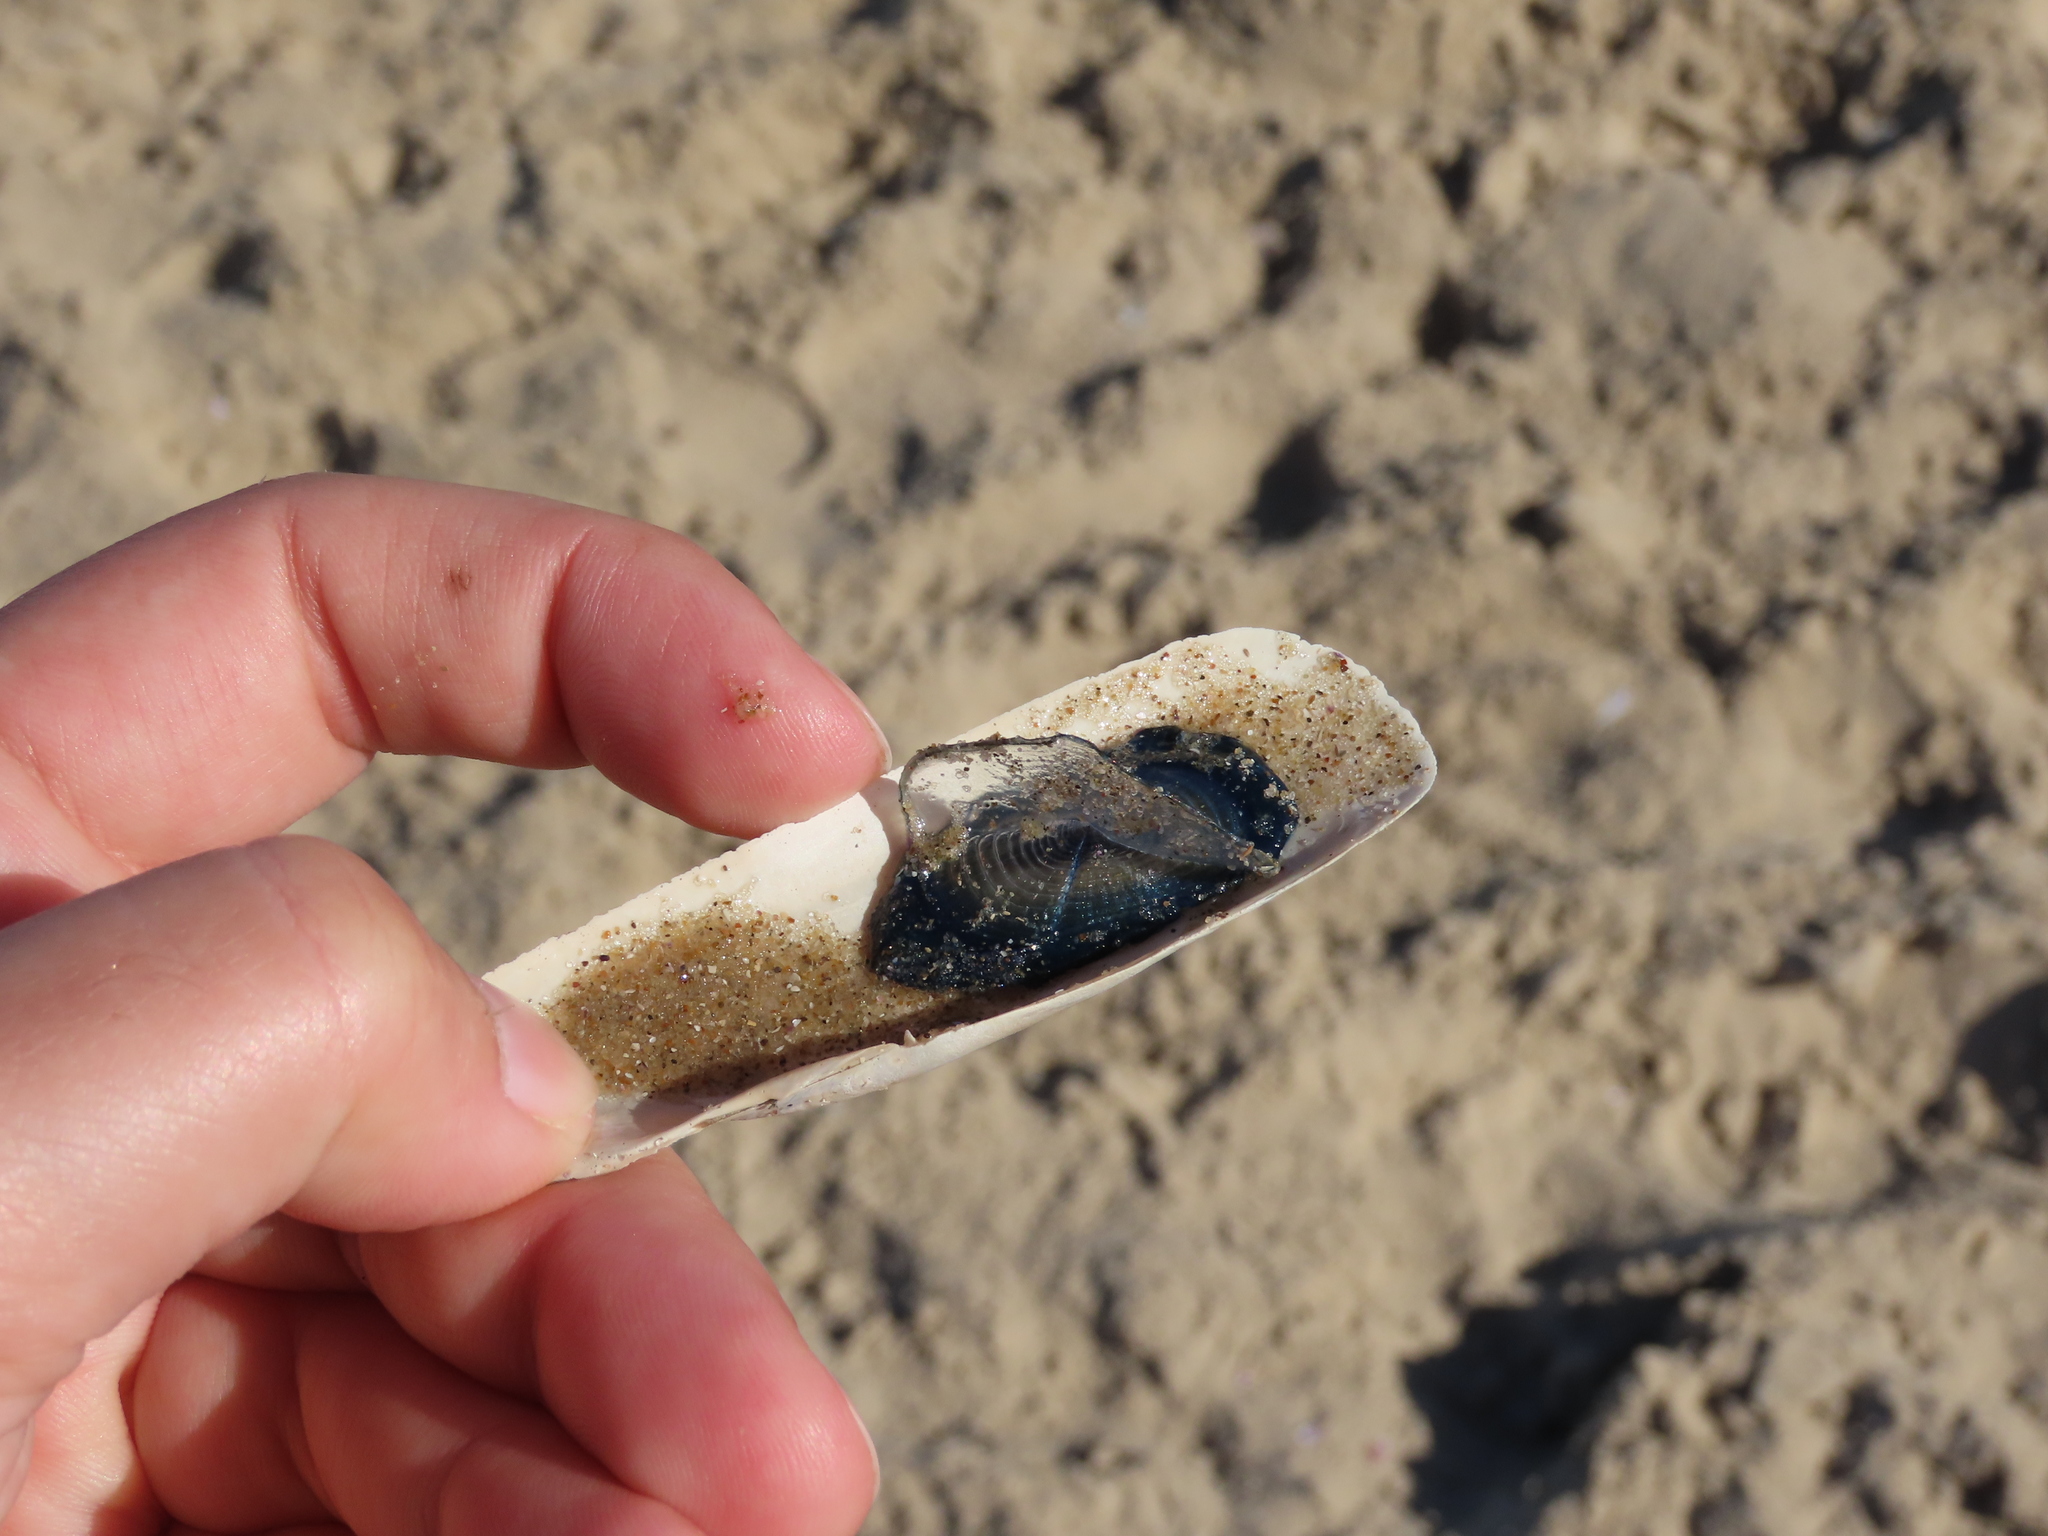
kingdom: Animalia
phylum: Cnidaria
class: Hydrozoa
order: Anthoathecata
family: Porpitidae
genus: Velella
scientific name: Velella velella
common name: By-the-wind-sailor
